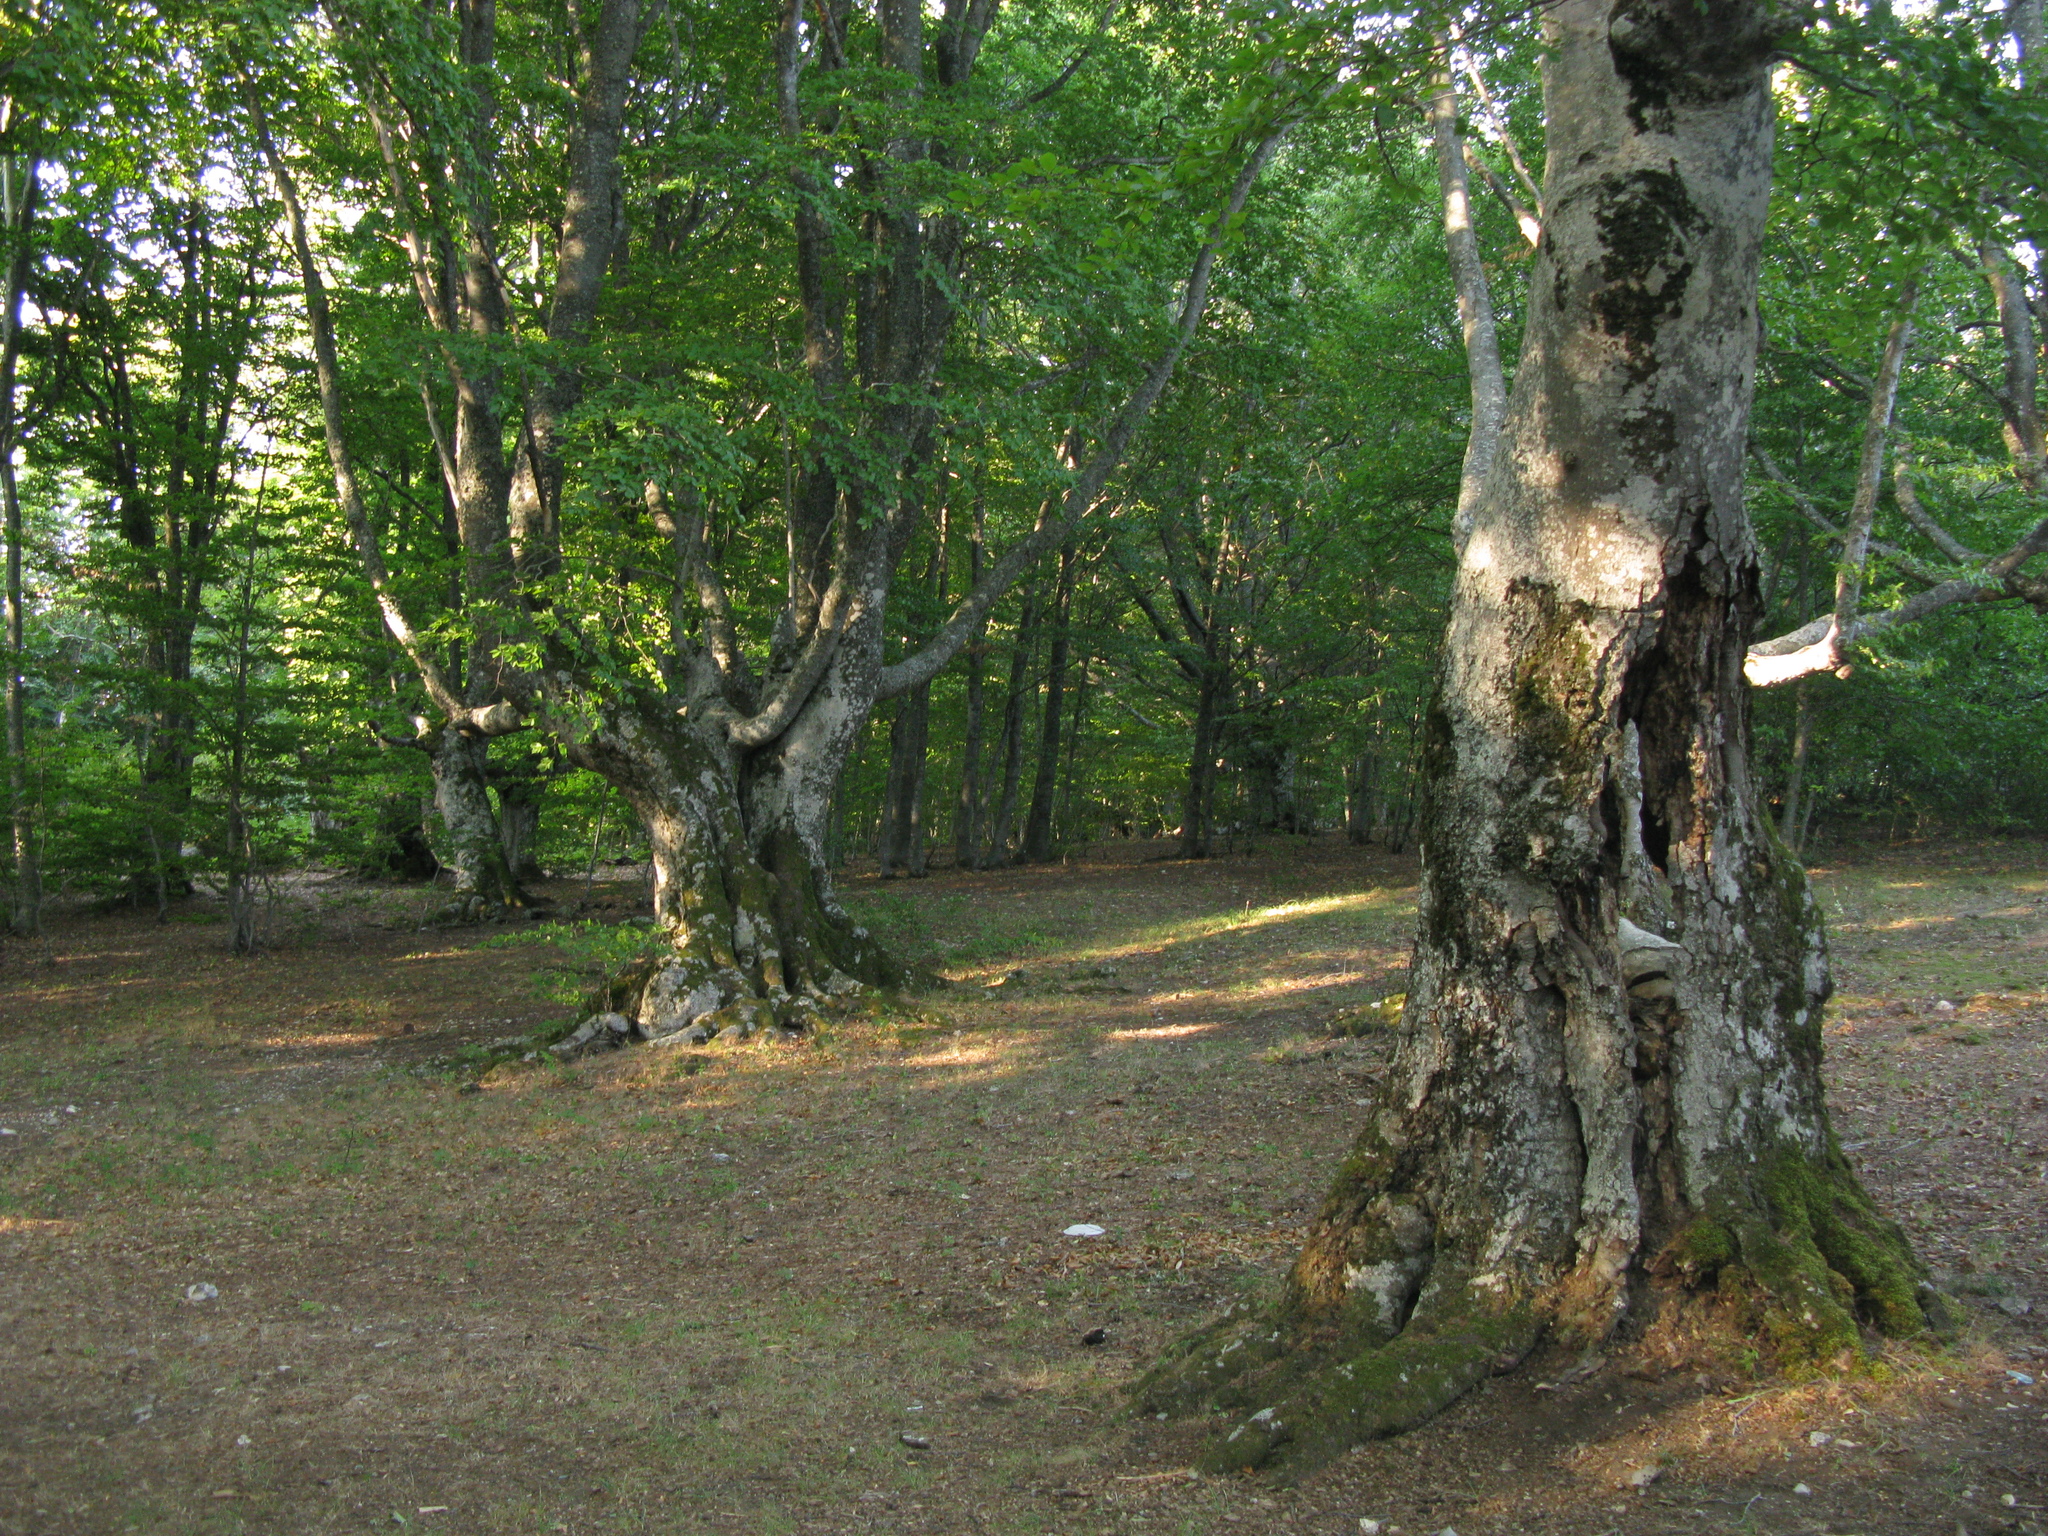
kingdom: Plantae
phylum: Tracheophyta
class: Magnoliopsida
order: Fagales
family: Fagaceae
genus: Fagus
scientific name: Fagus taurica
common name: Crimean beech
